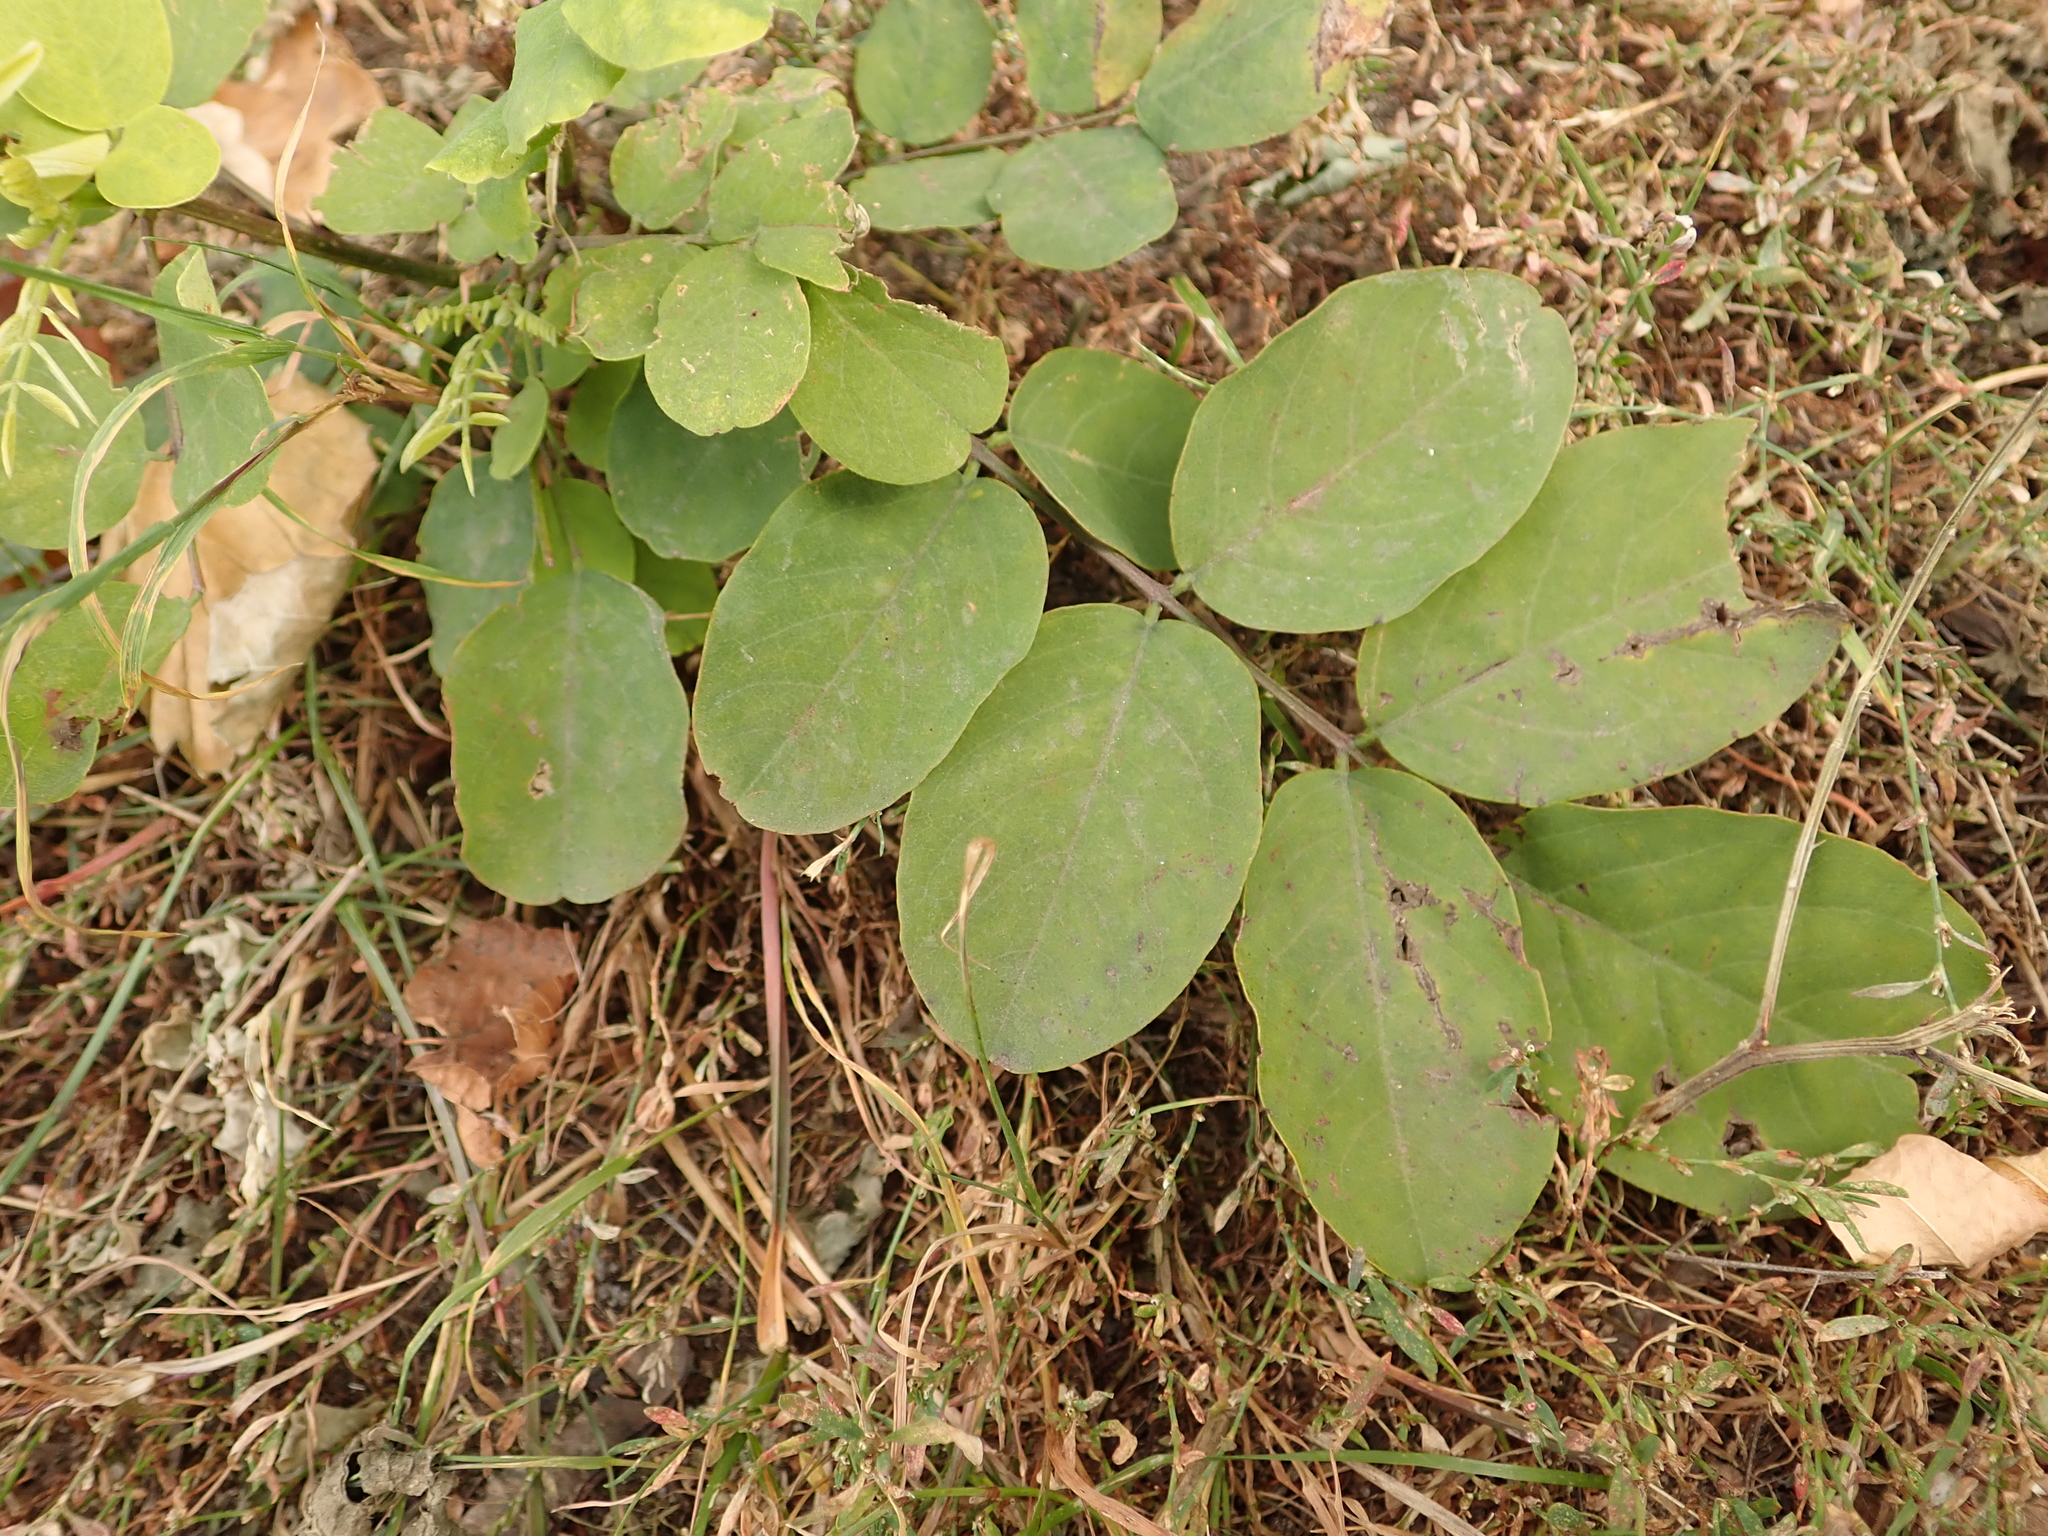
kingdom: Plantae
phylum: Tracheophyta
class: Magnoliopsida
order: Fabales
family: Fabaceae
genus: Robinia
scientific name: Robinia pseudoacacia
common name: Black locust
